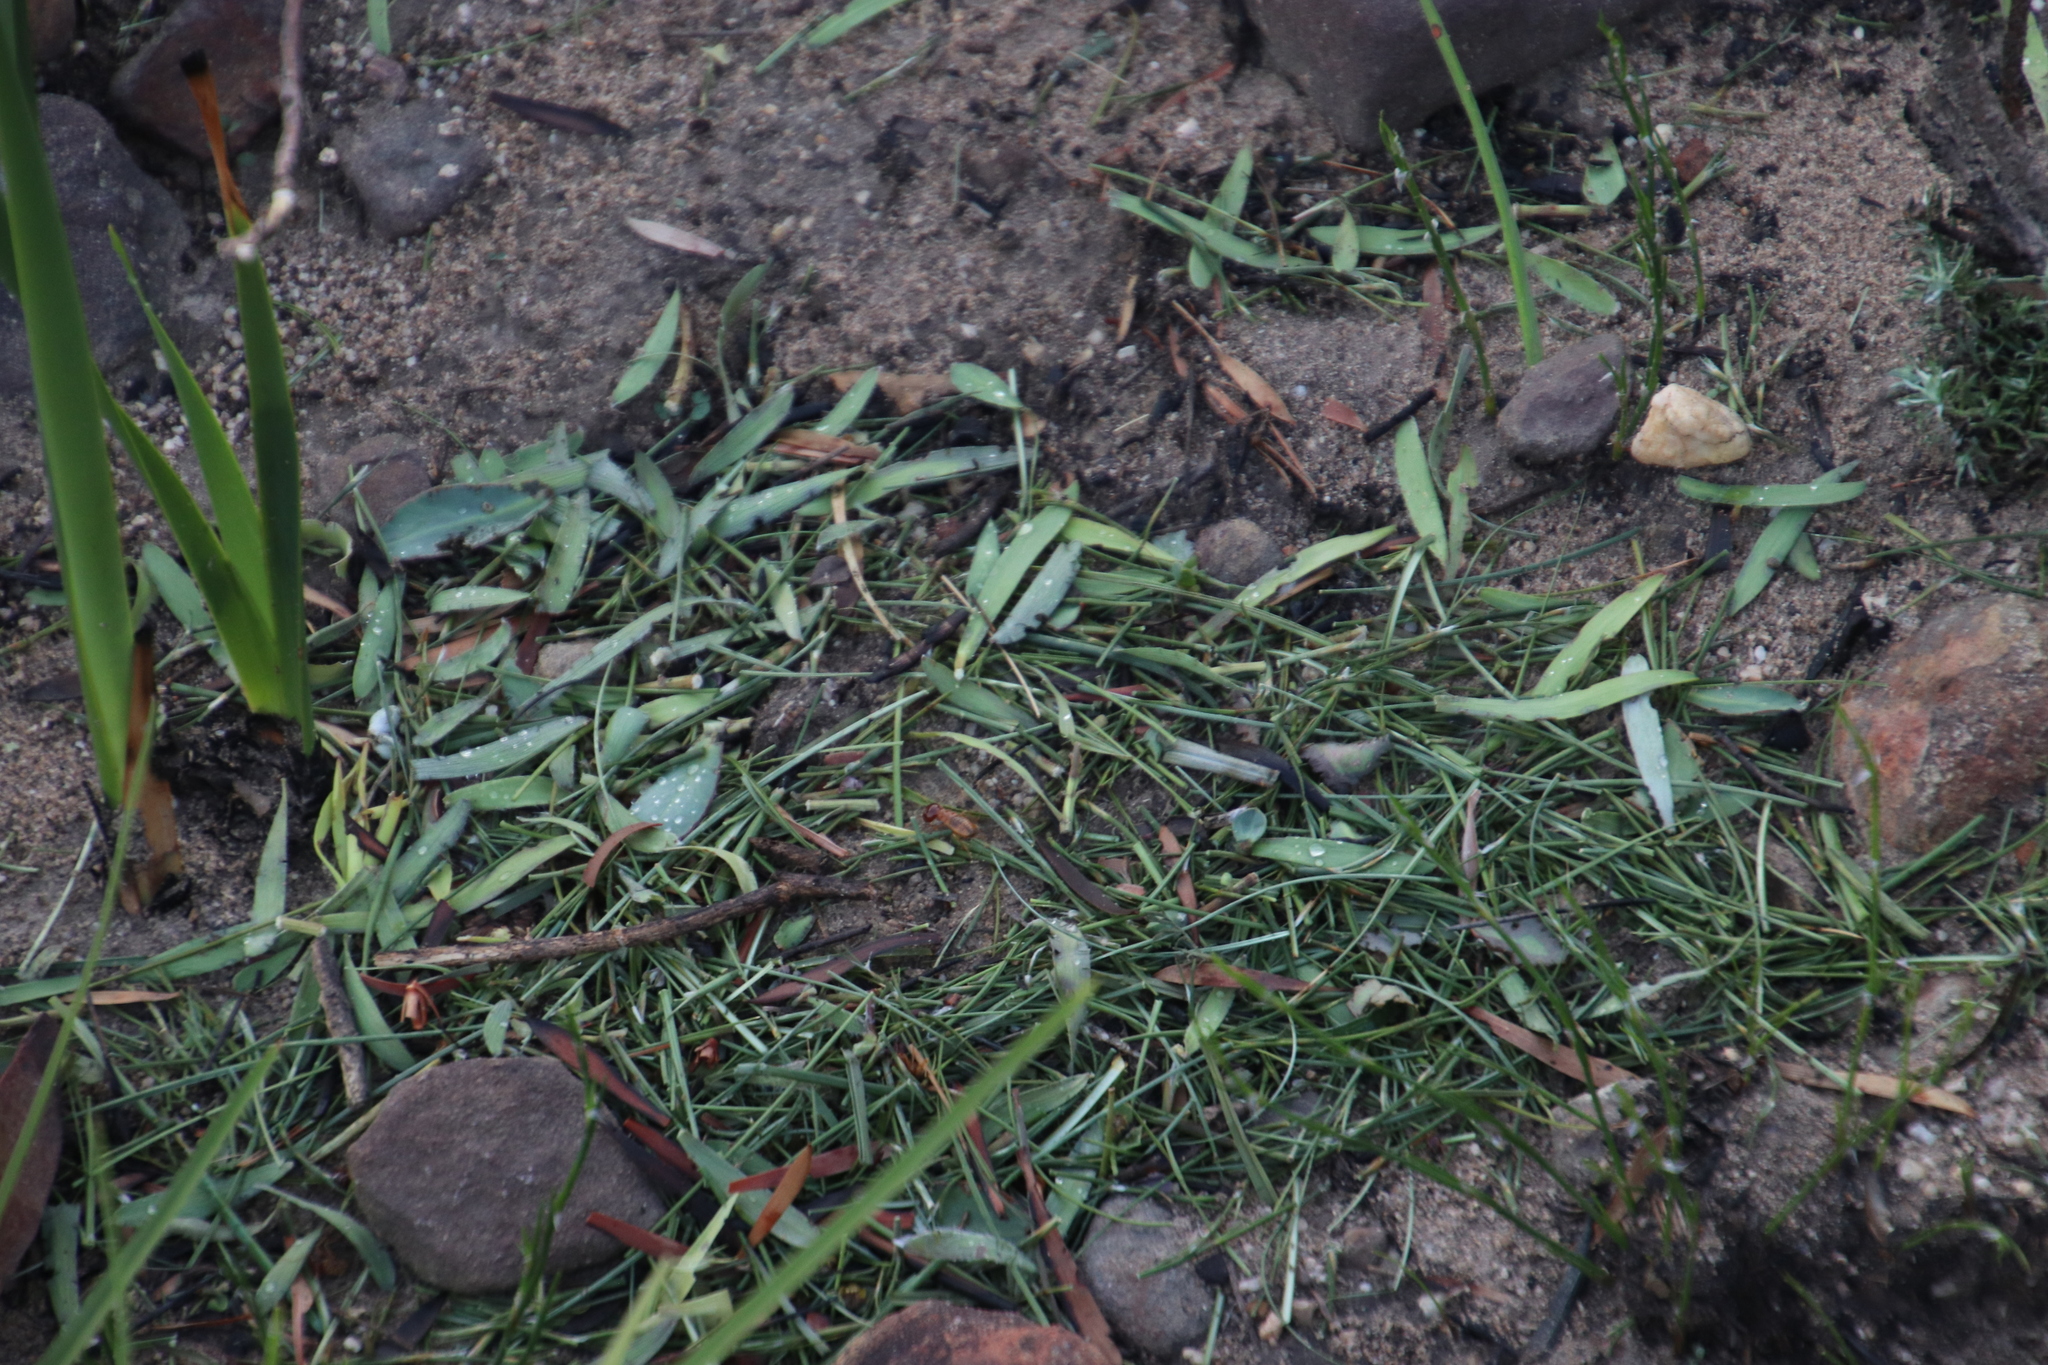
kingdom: Animalia
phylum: Arthropoda
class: Insecta
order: Blattodea
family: Hodotermitidae
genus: Microhodotermes
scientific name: Microhodotermes viator
